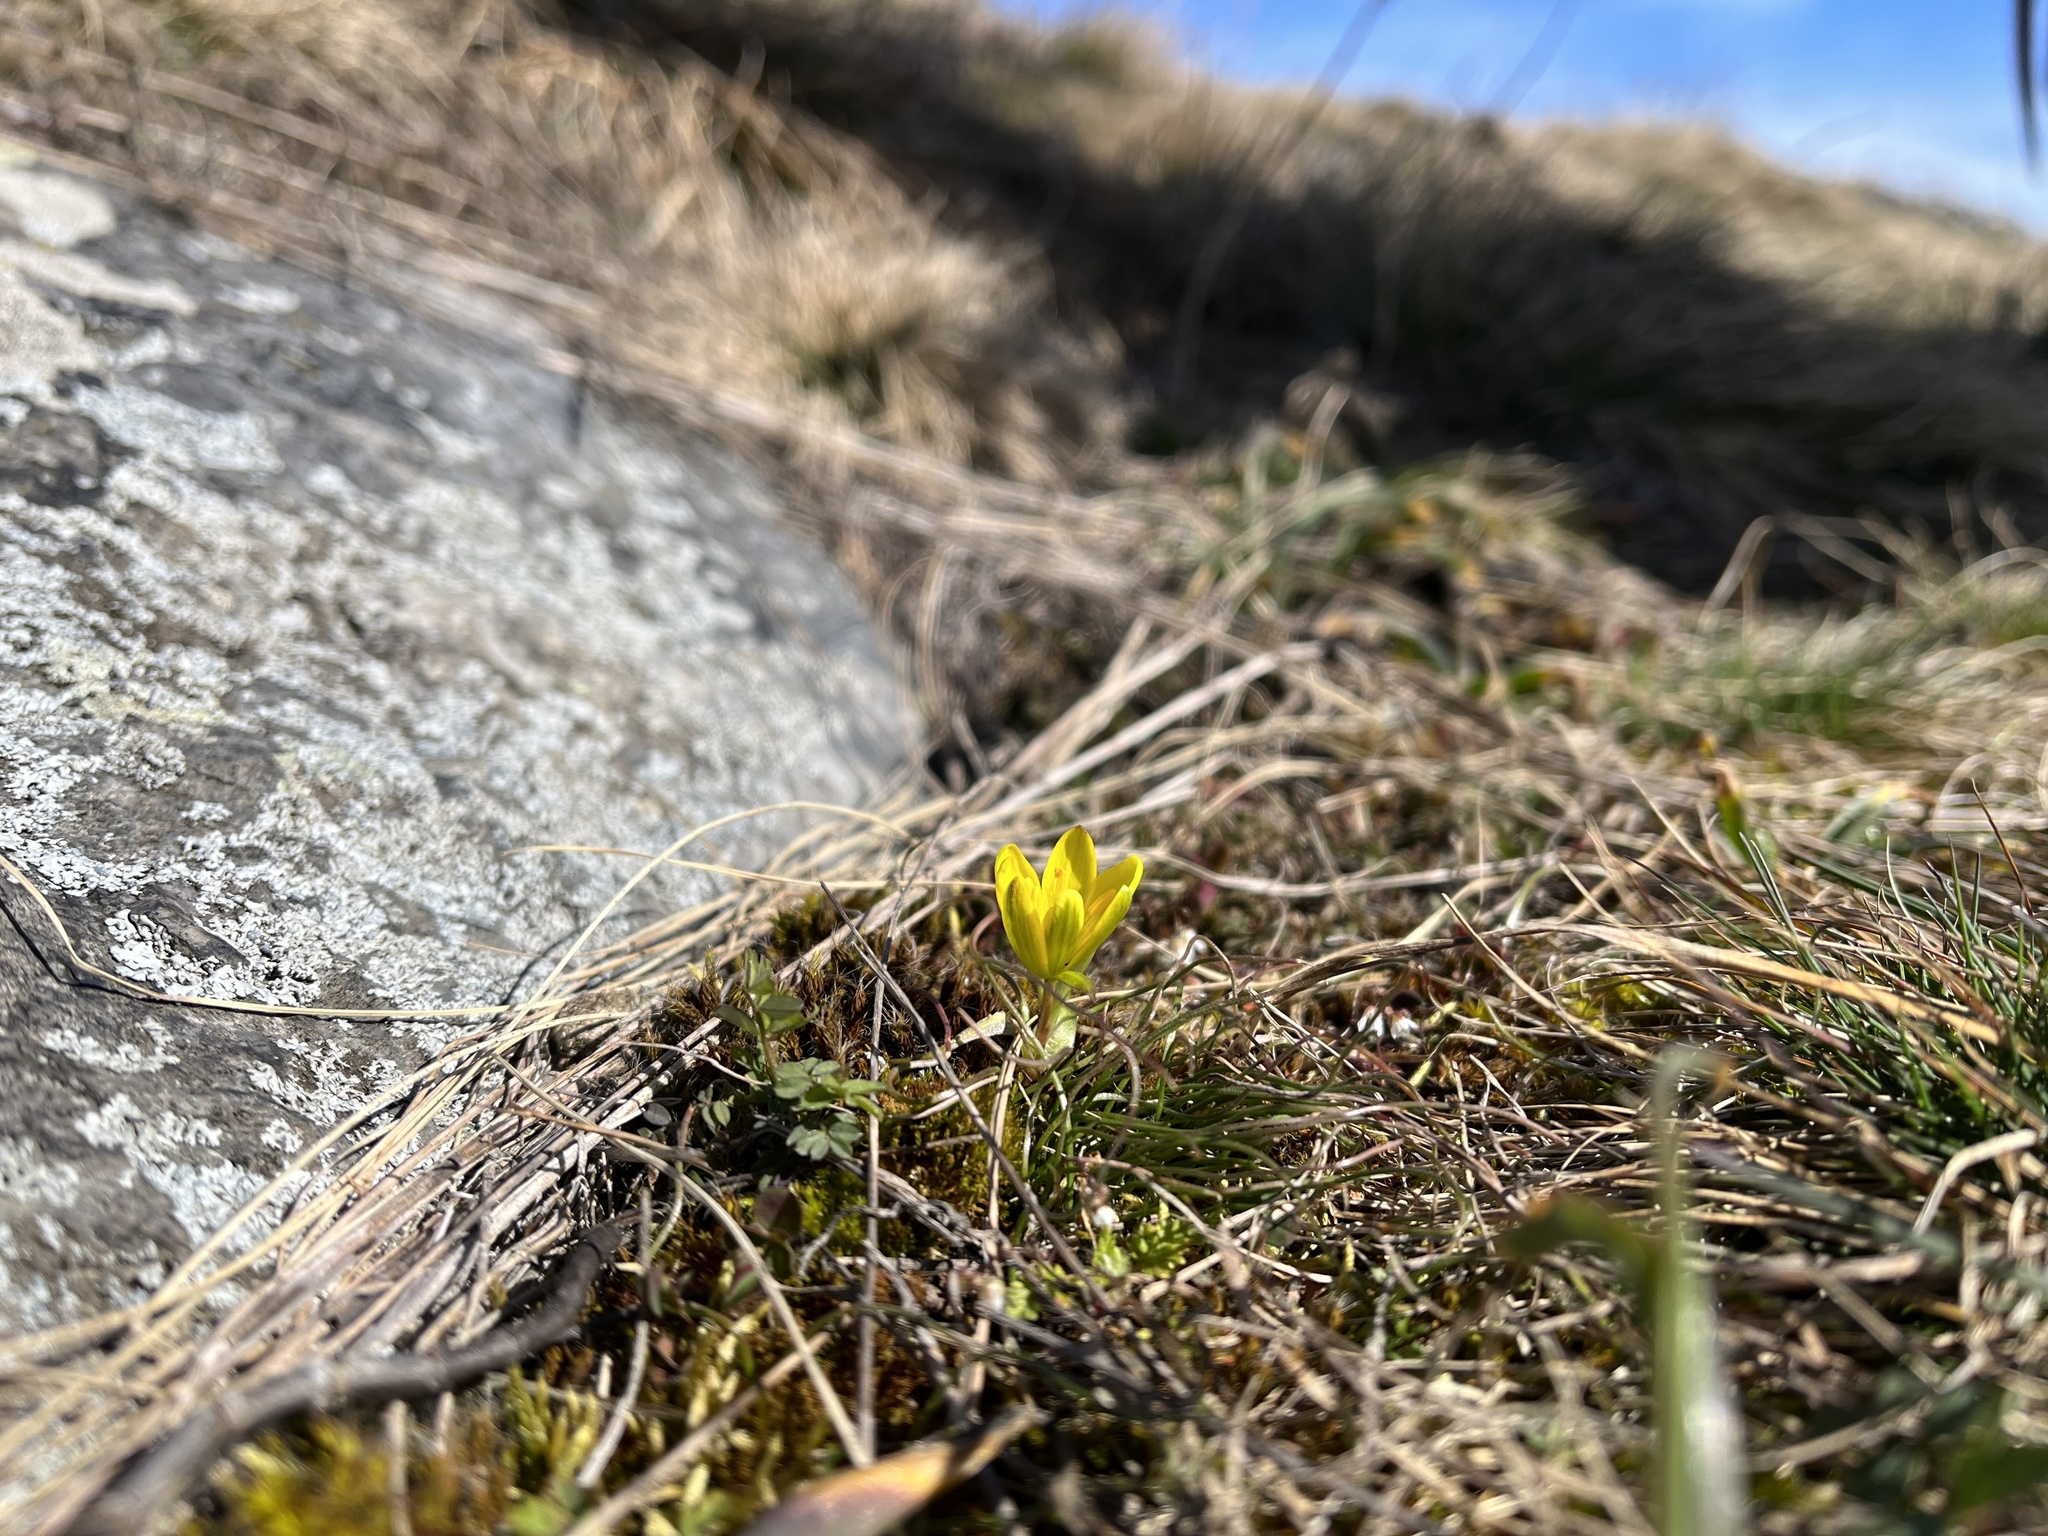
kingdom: Plantae
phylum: Tracheophyta
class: Liliopsida
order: Liliales
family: Liliaceae
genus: Gagea
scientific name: Gagea bohemica
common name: Early star-of-bethlehem
